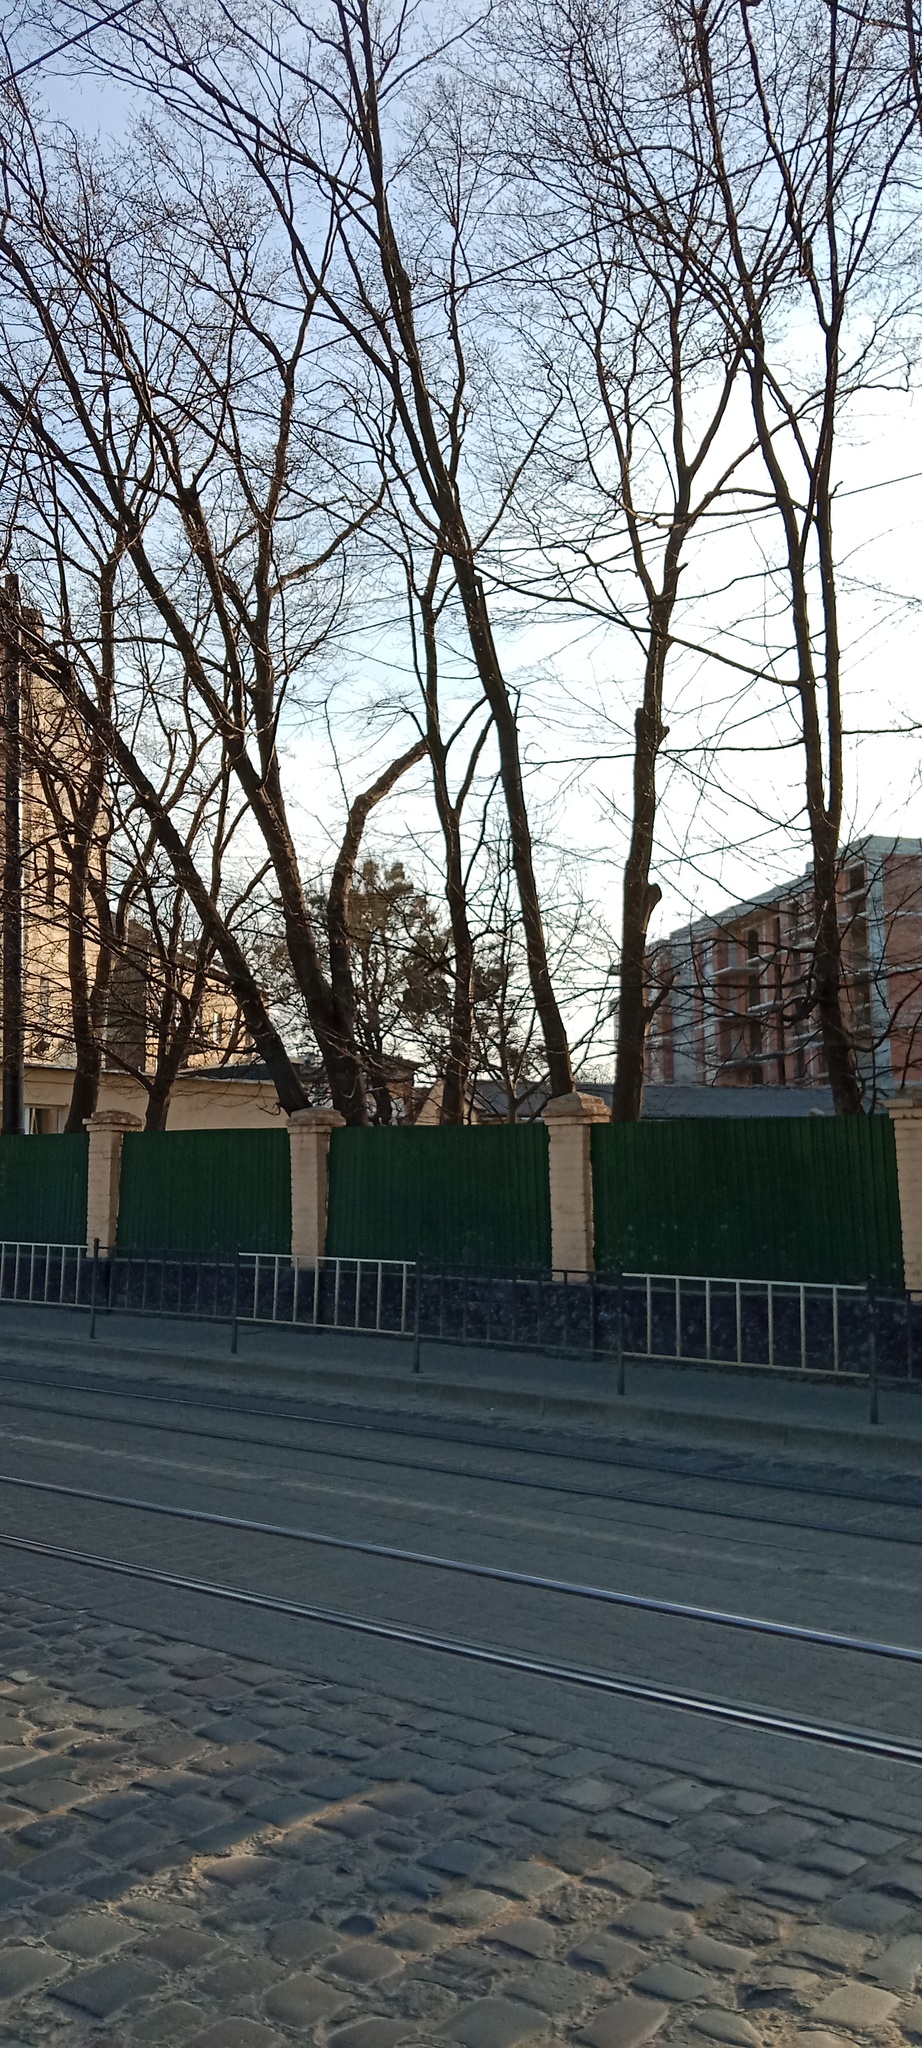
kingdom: Plantae
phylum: Tracheophyta
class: Magnoliopsida
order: Santalales
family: Viscaceae
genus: Viscum
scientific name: Viscum album
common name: Mistletoe
